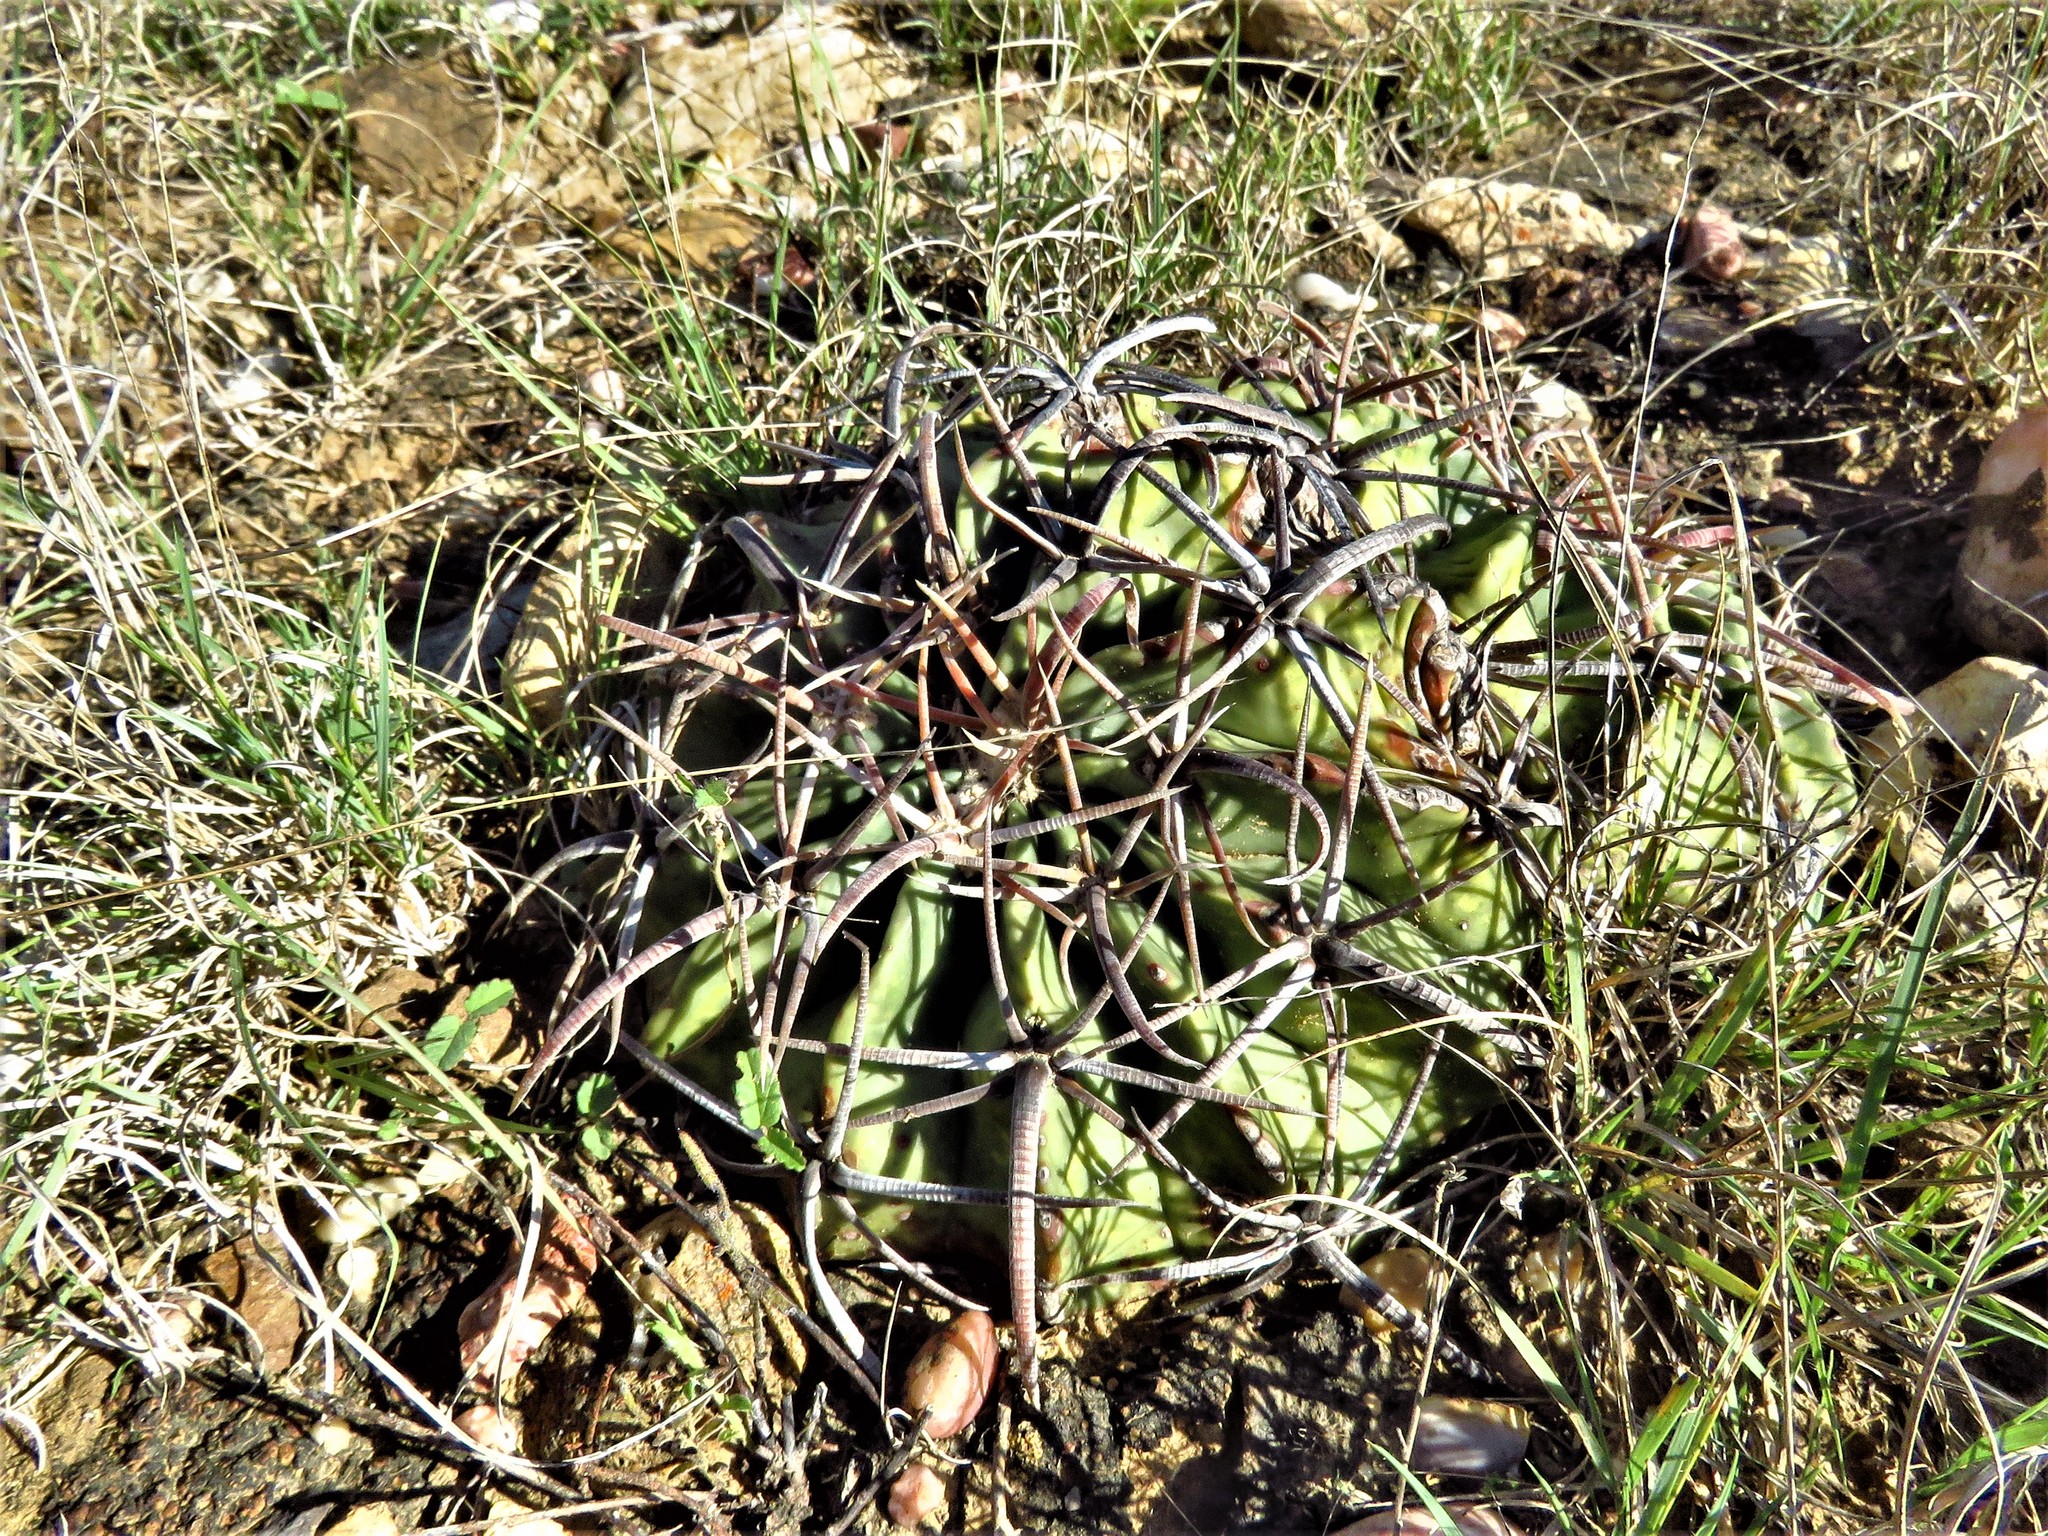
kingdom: Plantae
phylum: Tracheophyta
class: Magnoliopsida
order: Caryophyllales
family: Cactaceae
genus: Echinocactus
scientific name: Echinocactus texensis
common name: Devil's pincushion
